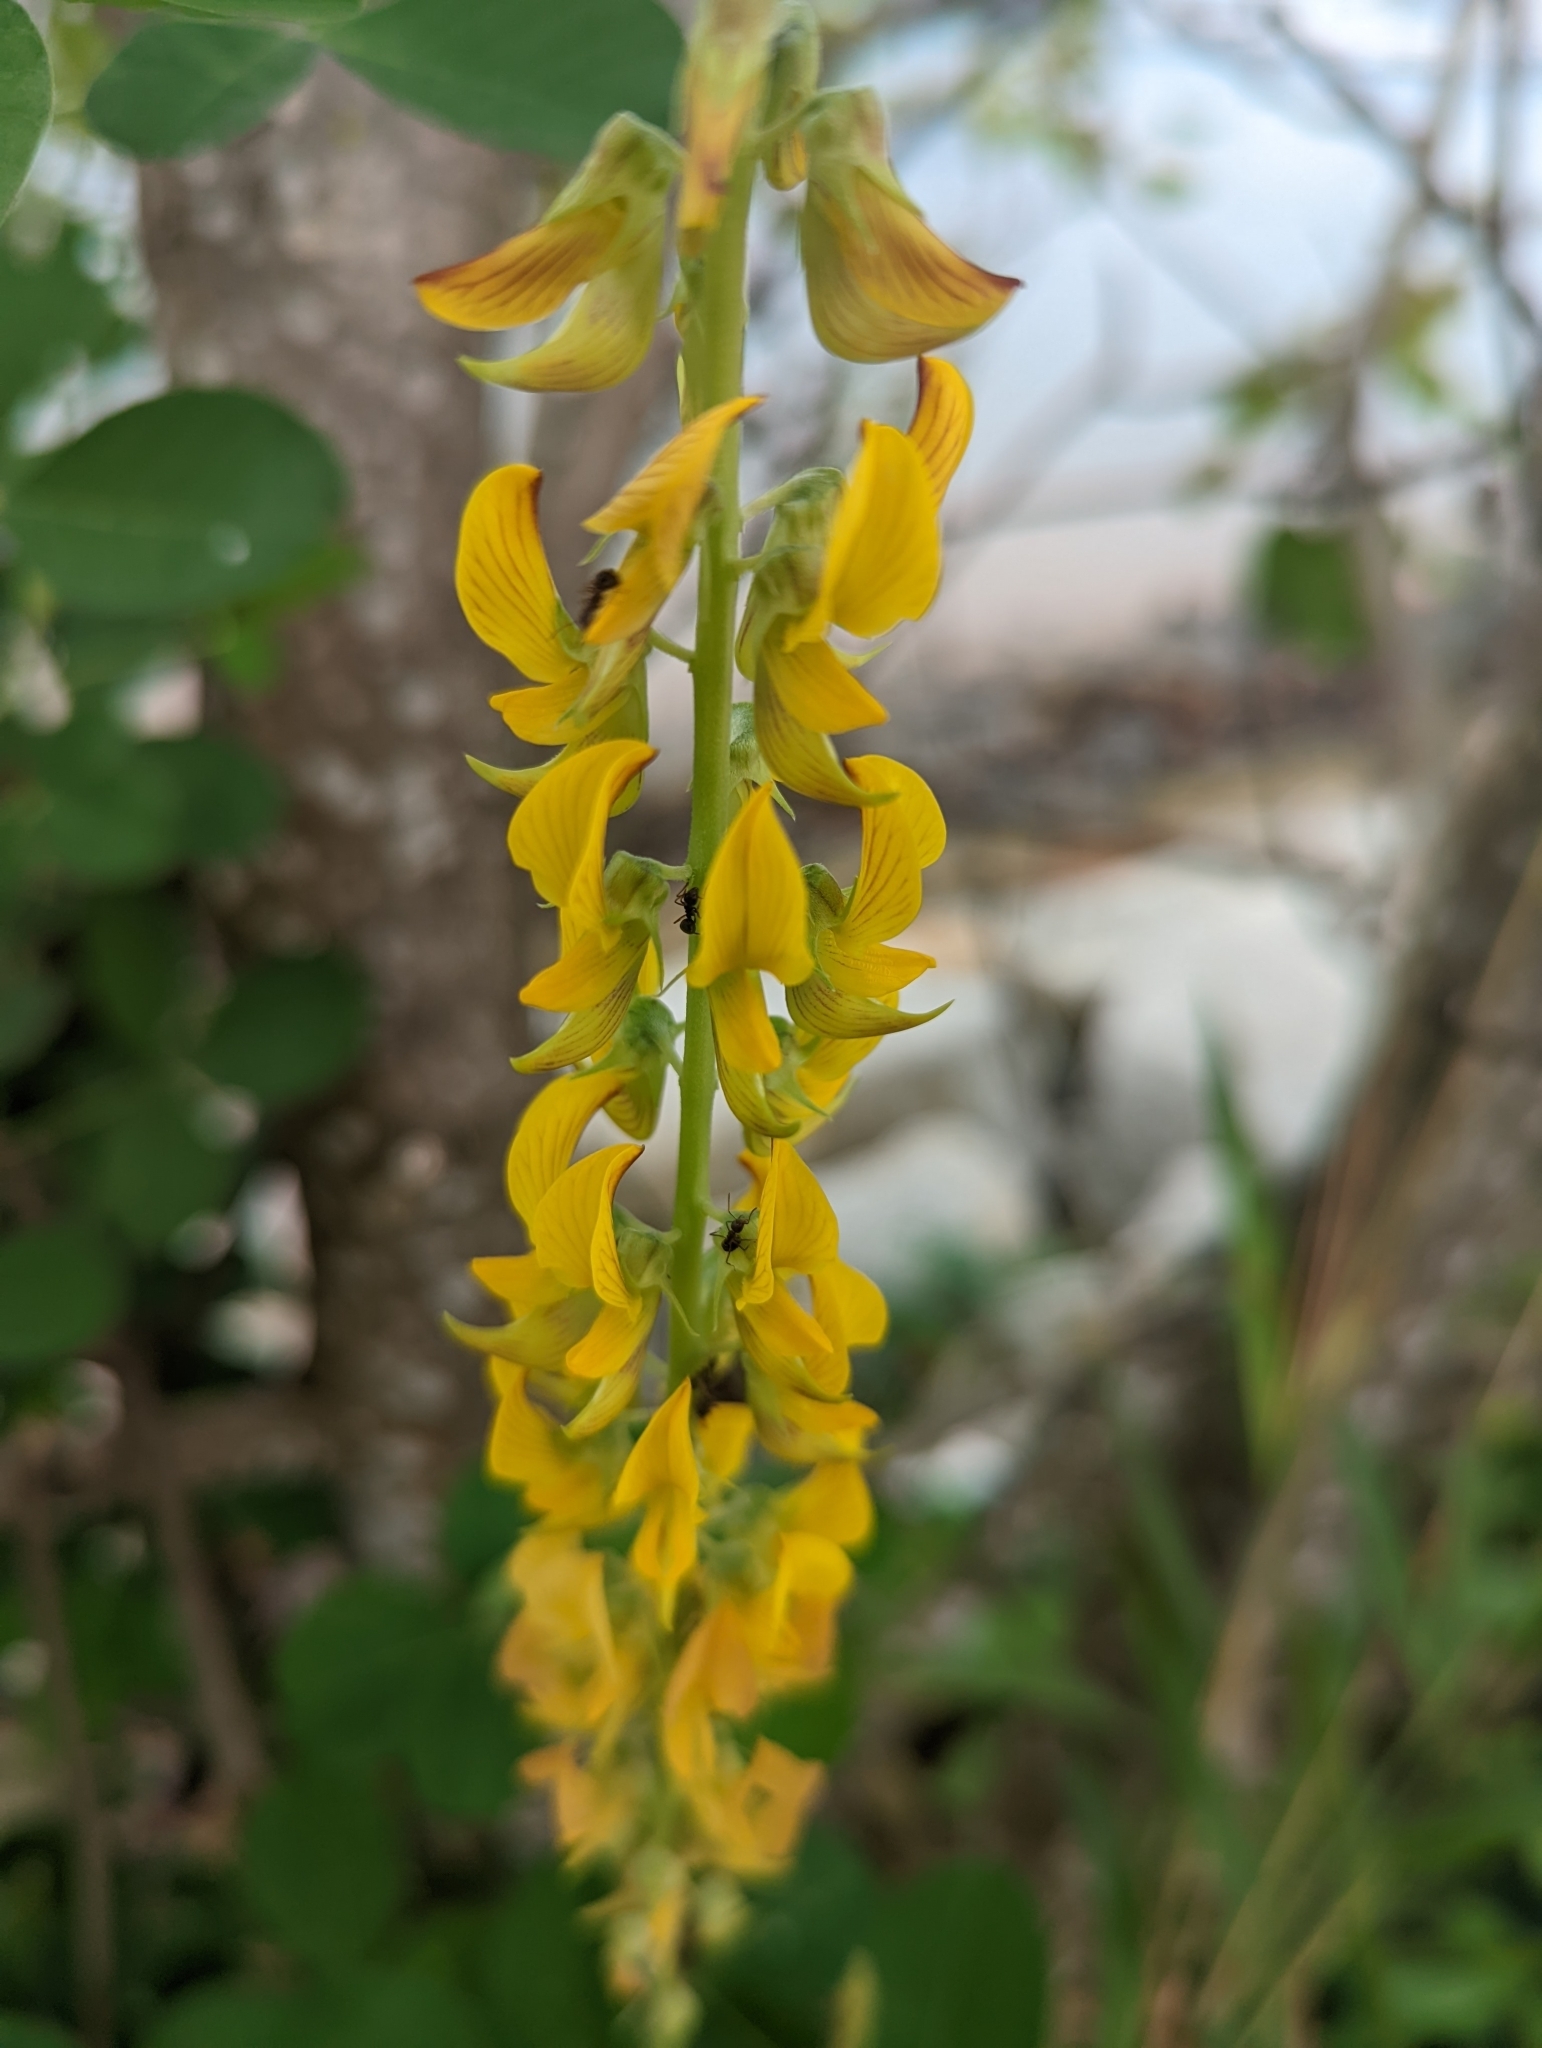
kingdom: Plantae
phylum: Tracheophyta
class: Magnoliopsida
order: Fabales
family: Fabaceae
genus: Crotalaria
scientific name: Crotalaria pallida
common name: Smooth rattlebox
